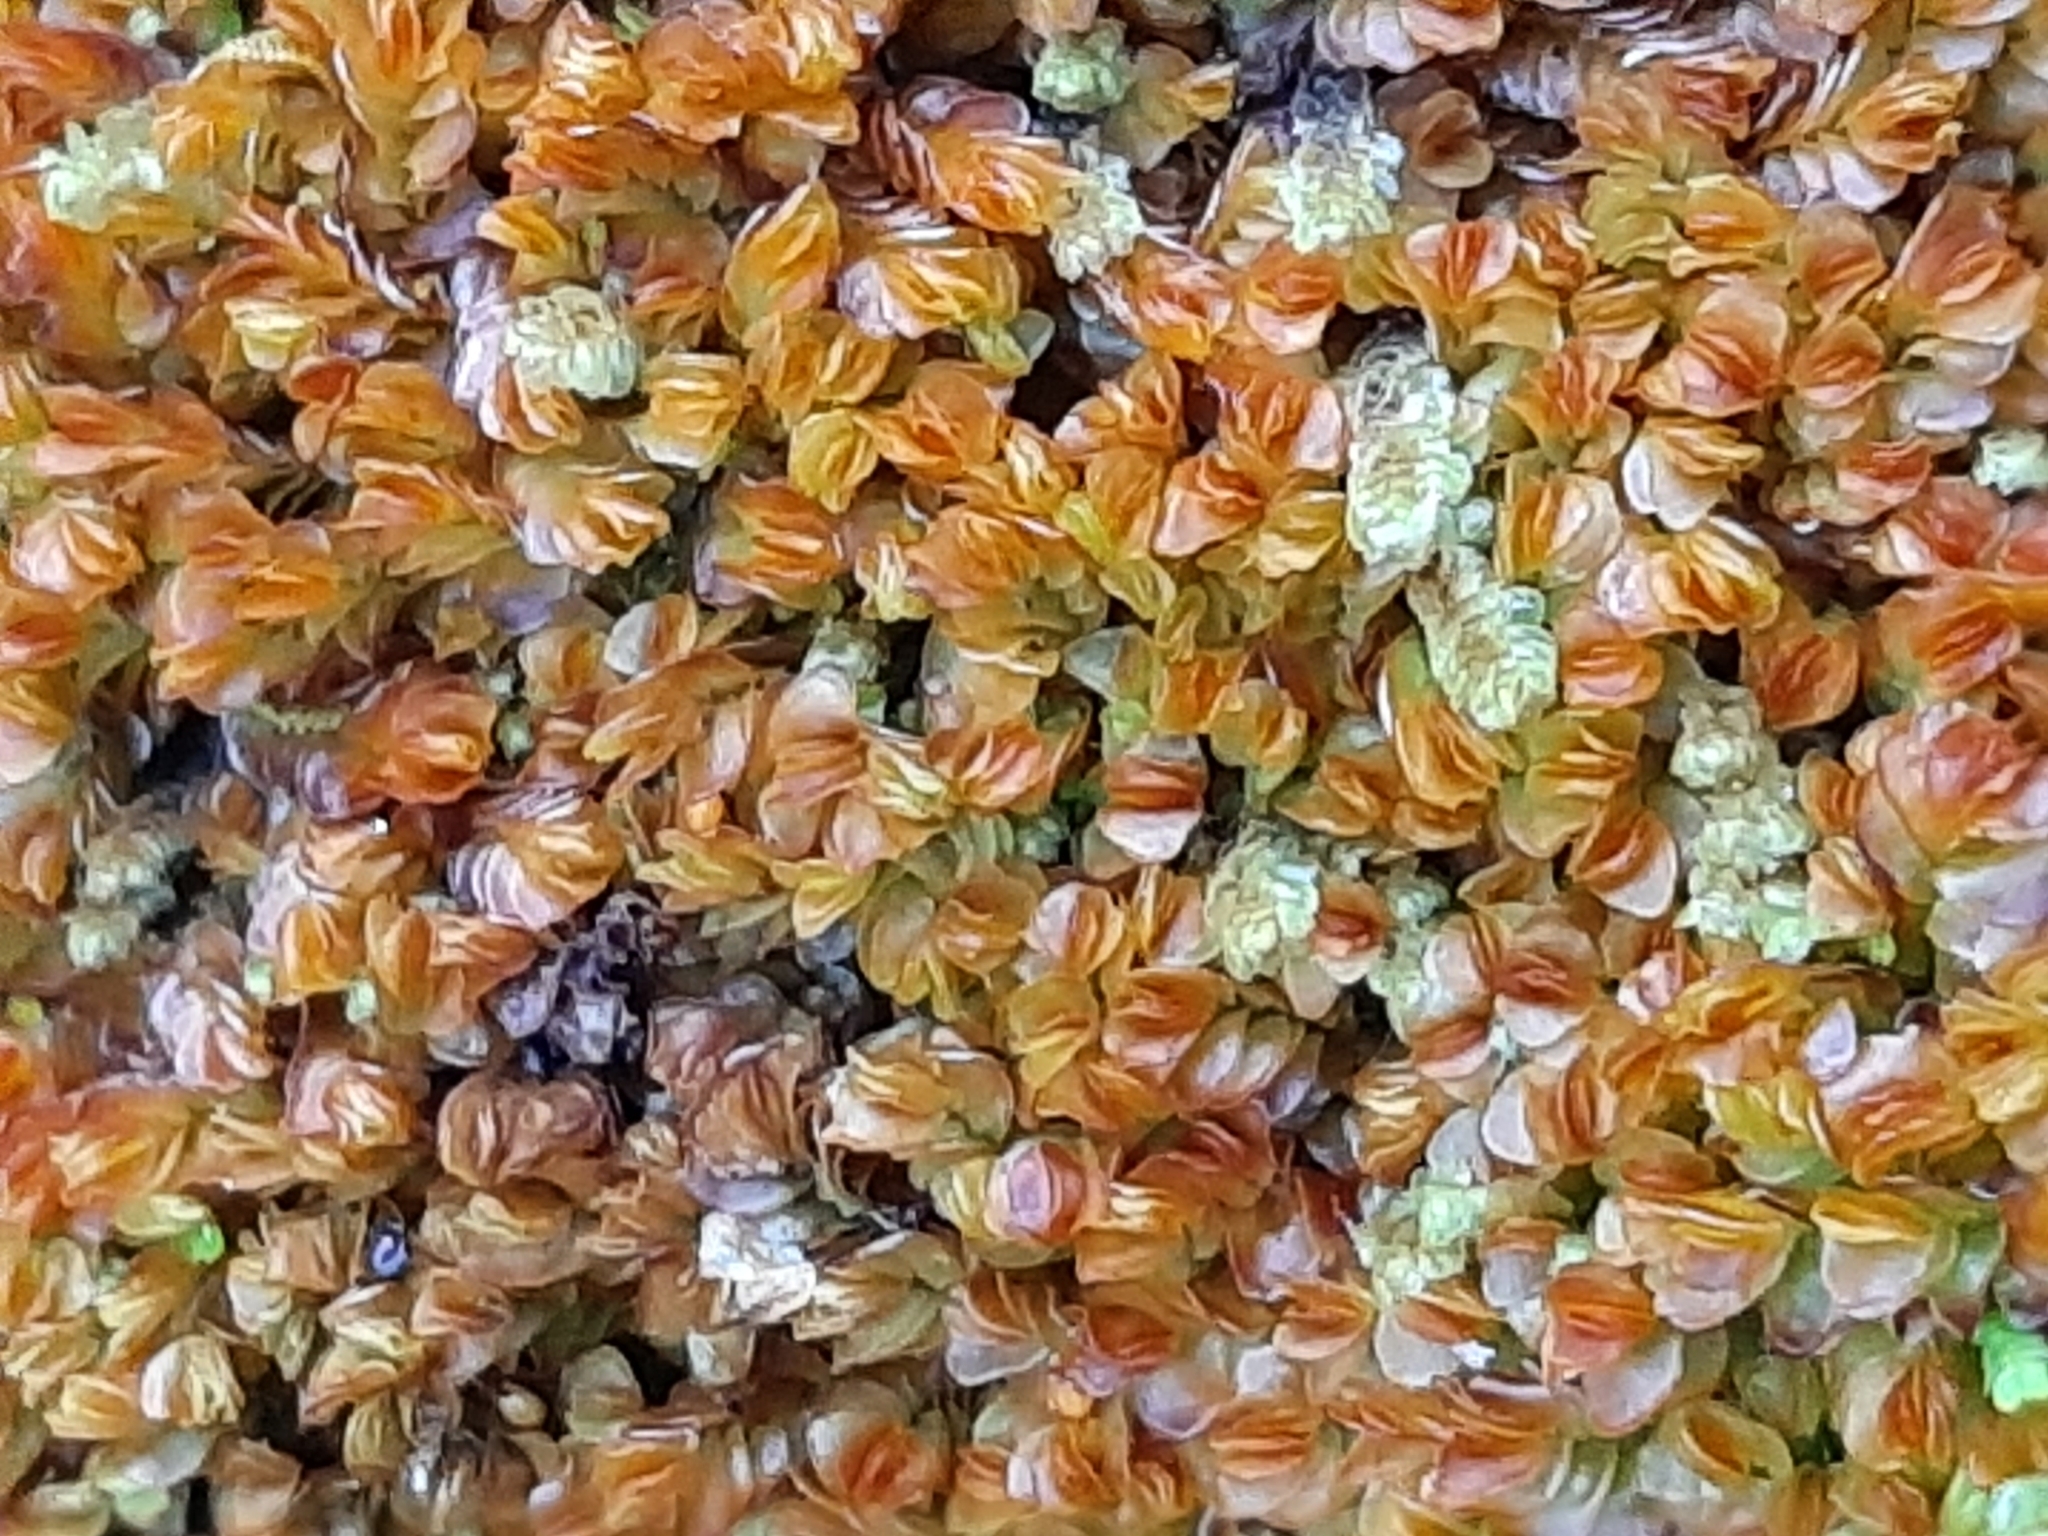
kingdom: Plantae
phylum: Marchantiophyta
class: Jungermanniopsida
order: Jungermanniales
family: Myliaceae
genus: Mylia
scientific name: Mylia taylorii
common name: Taylor s flapwort
